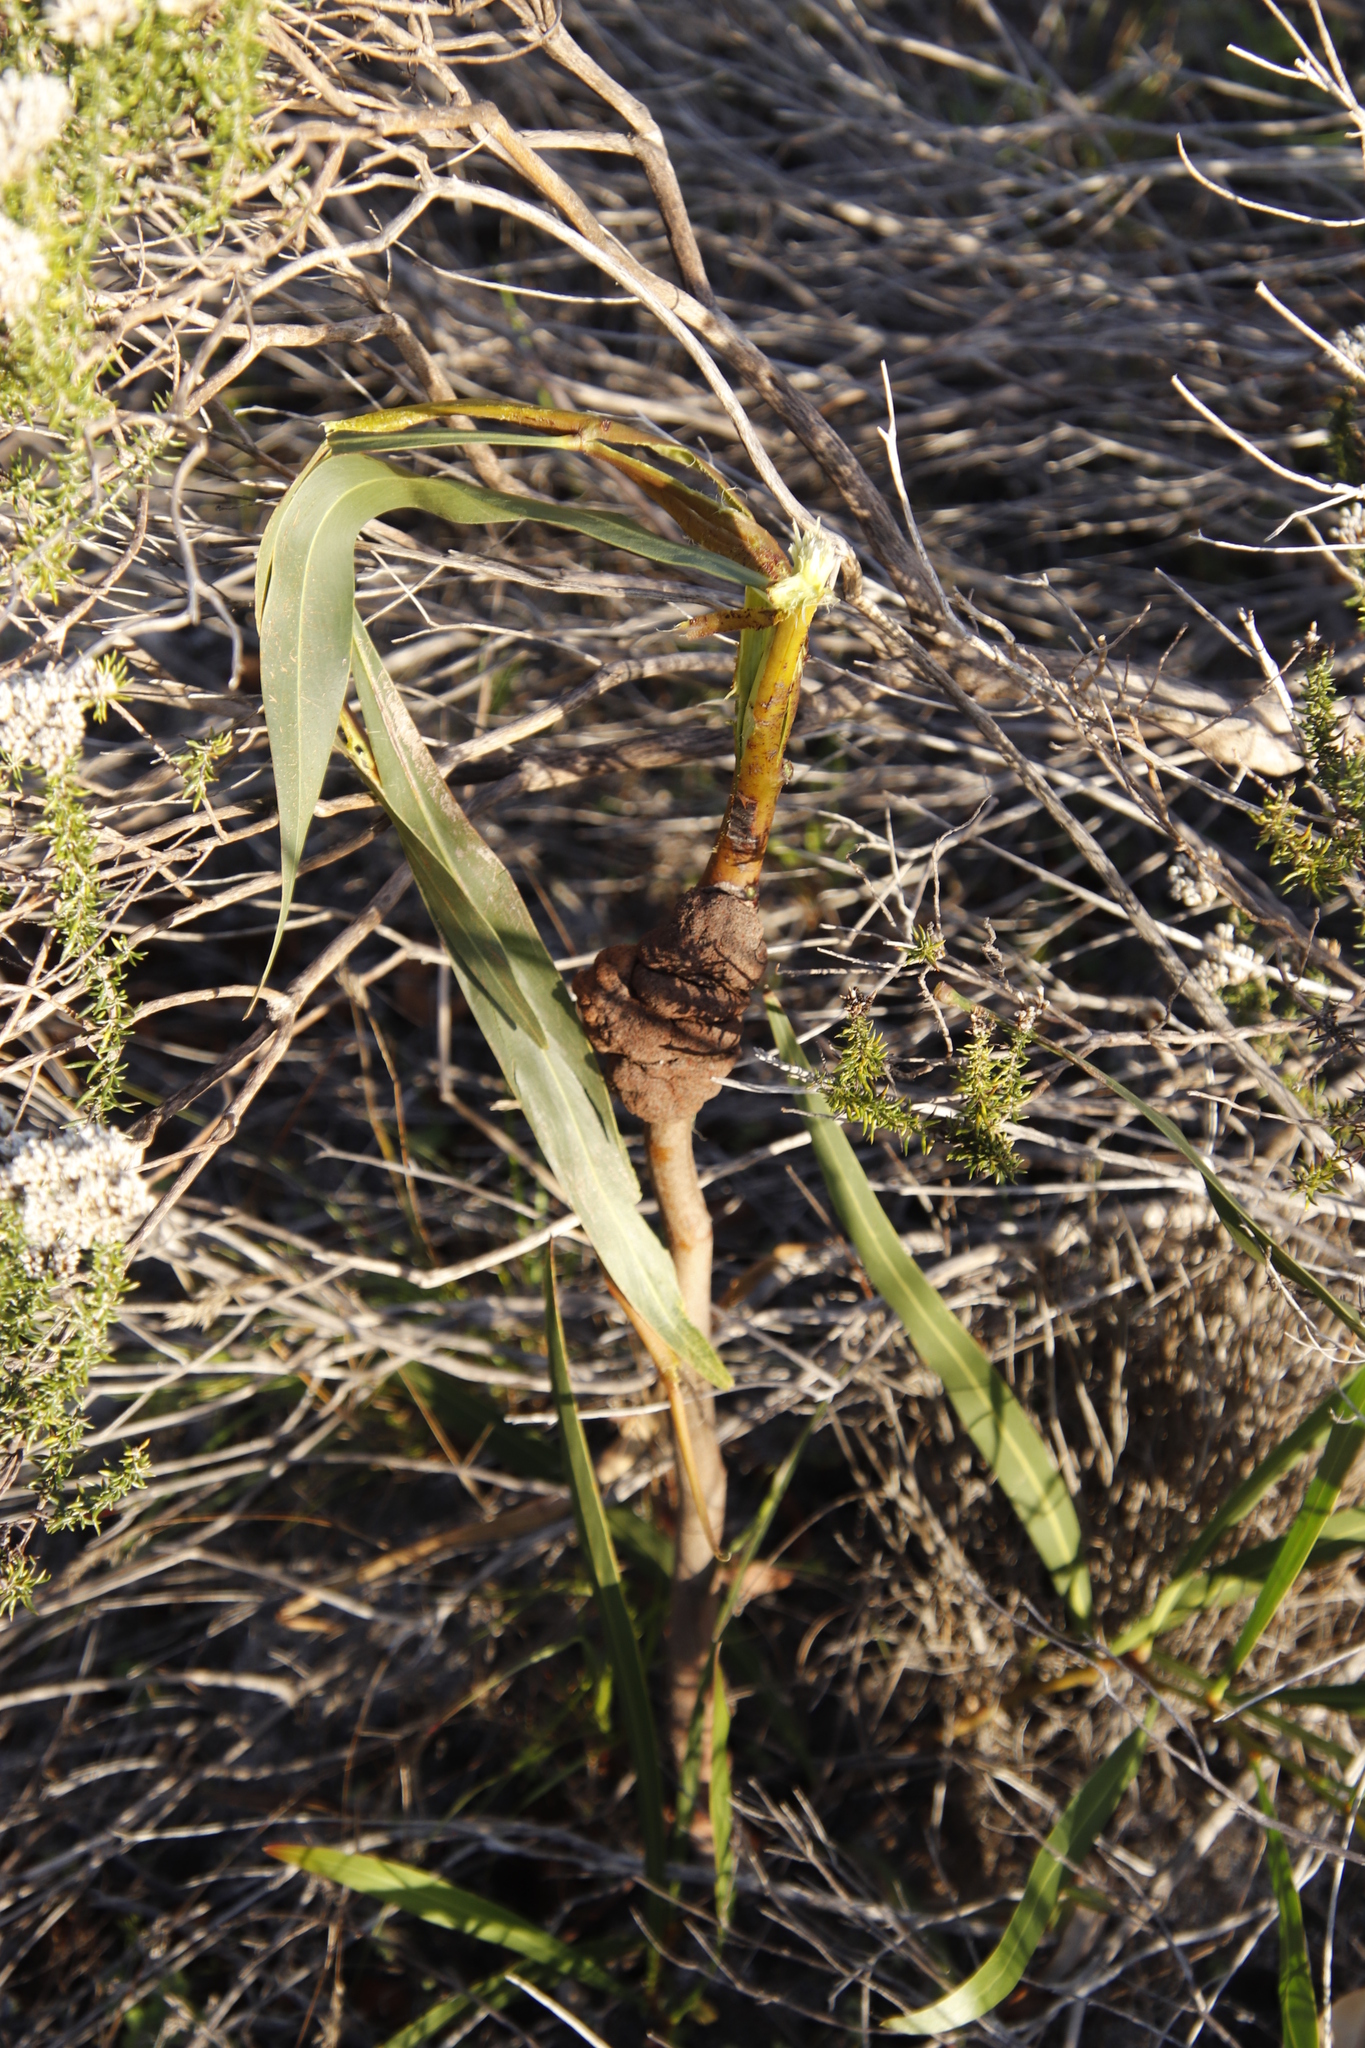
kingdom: Plantae
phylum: Tracheophyta
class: Magnoliopsida
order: Fabales
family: Fabaceae
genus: Acacia
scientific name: Acacia saligna
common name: Orange wattle
